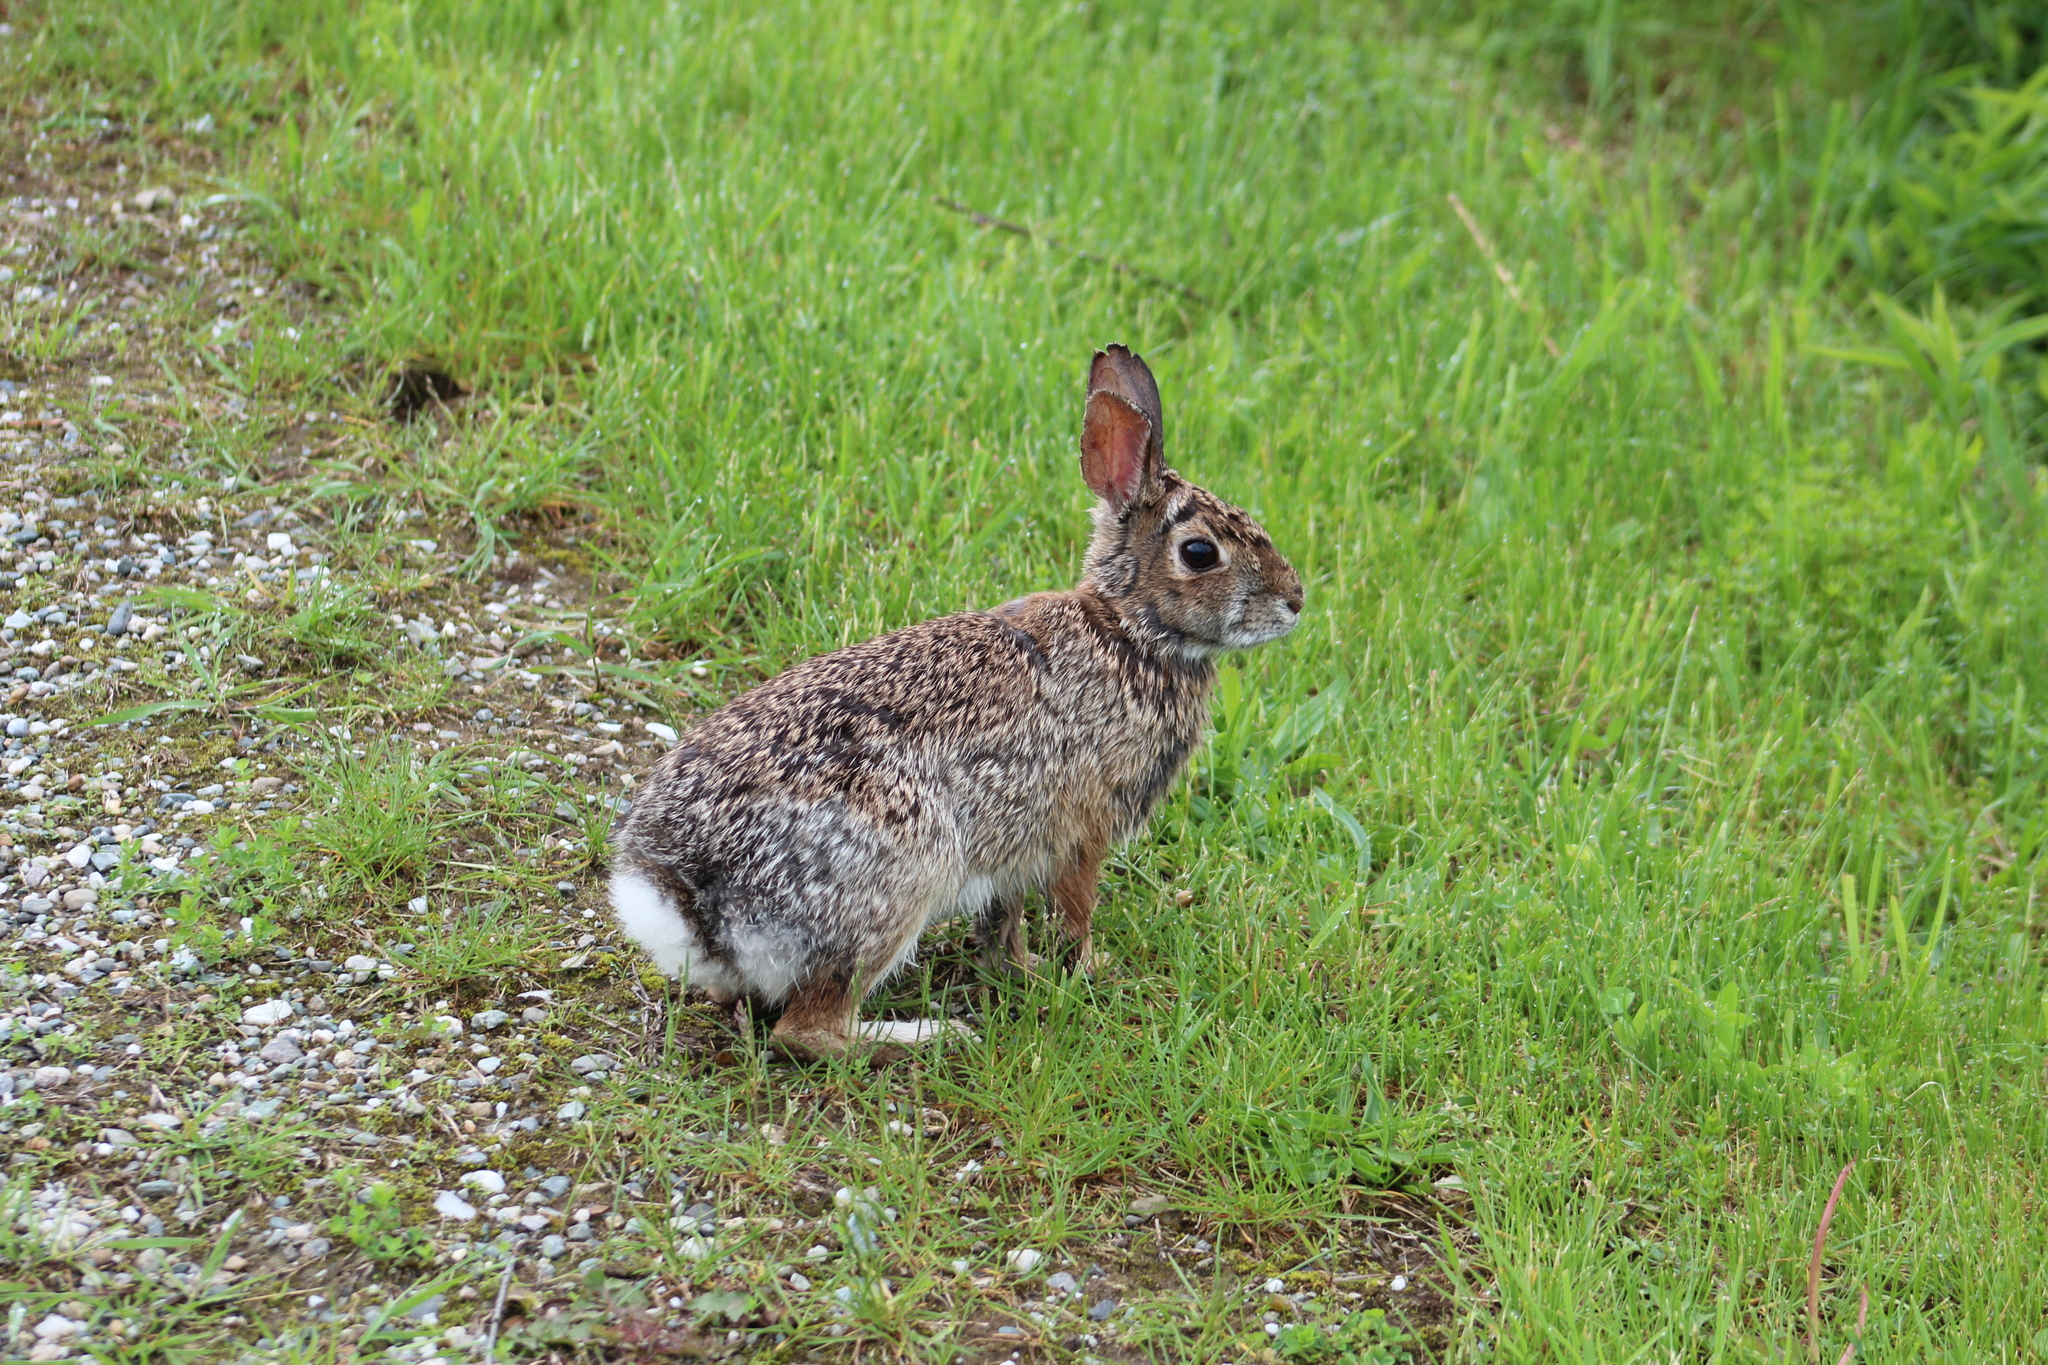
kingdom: Animalia
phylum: Chordata
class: Mammalia
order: Lagomorpha
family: Leporidae
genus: Sylvilagus
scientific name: Sylvilagus floridanus
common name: Eastern cottontail
